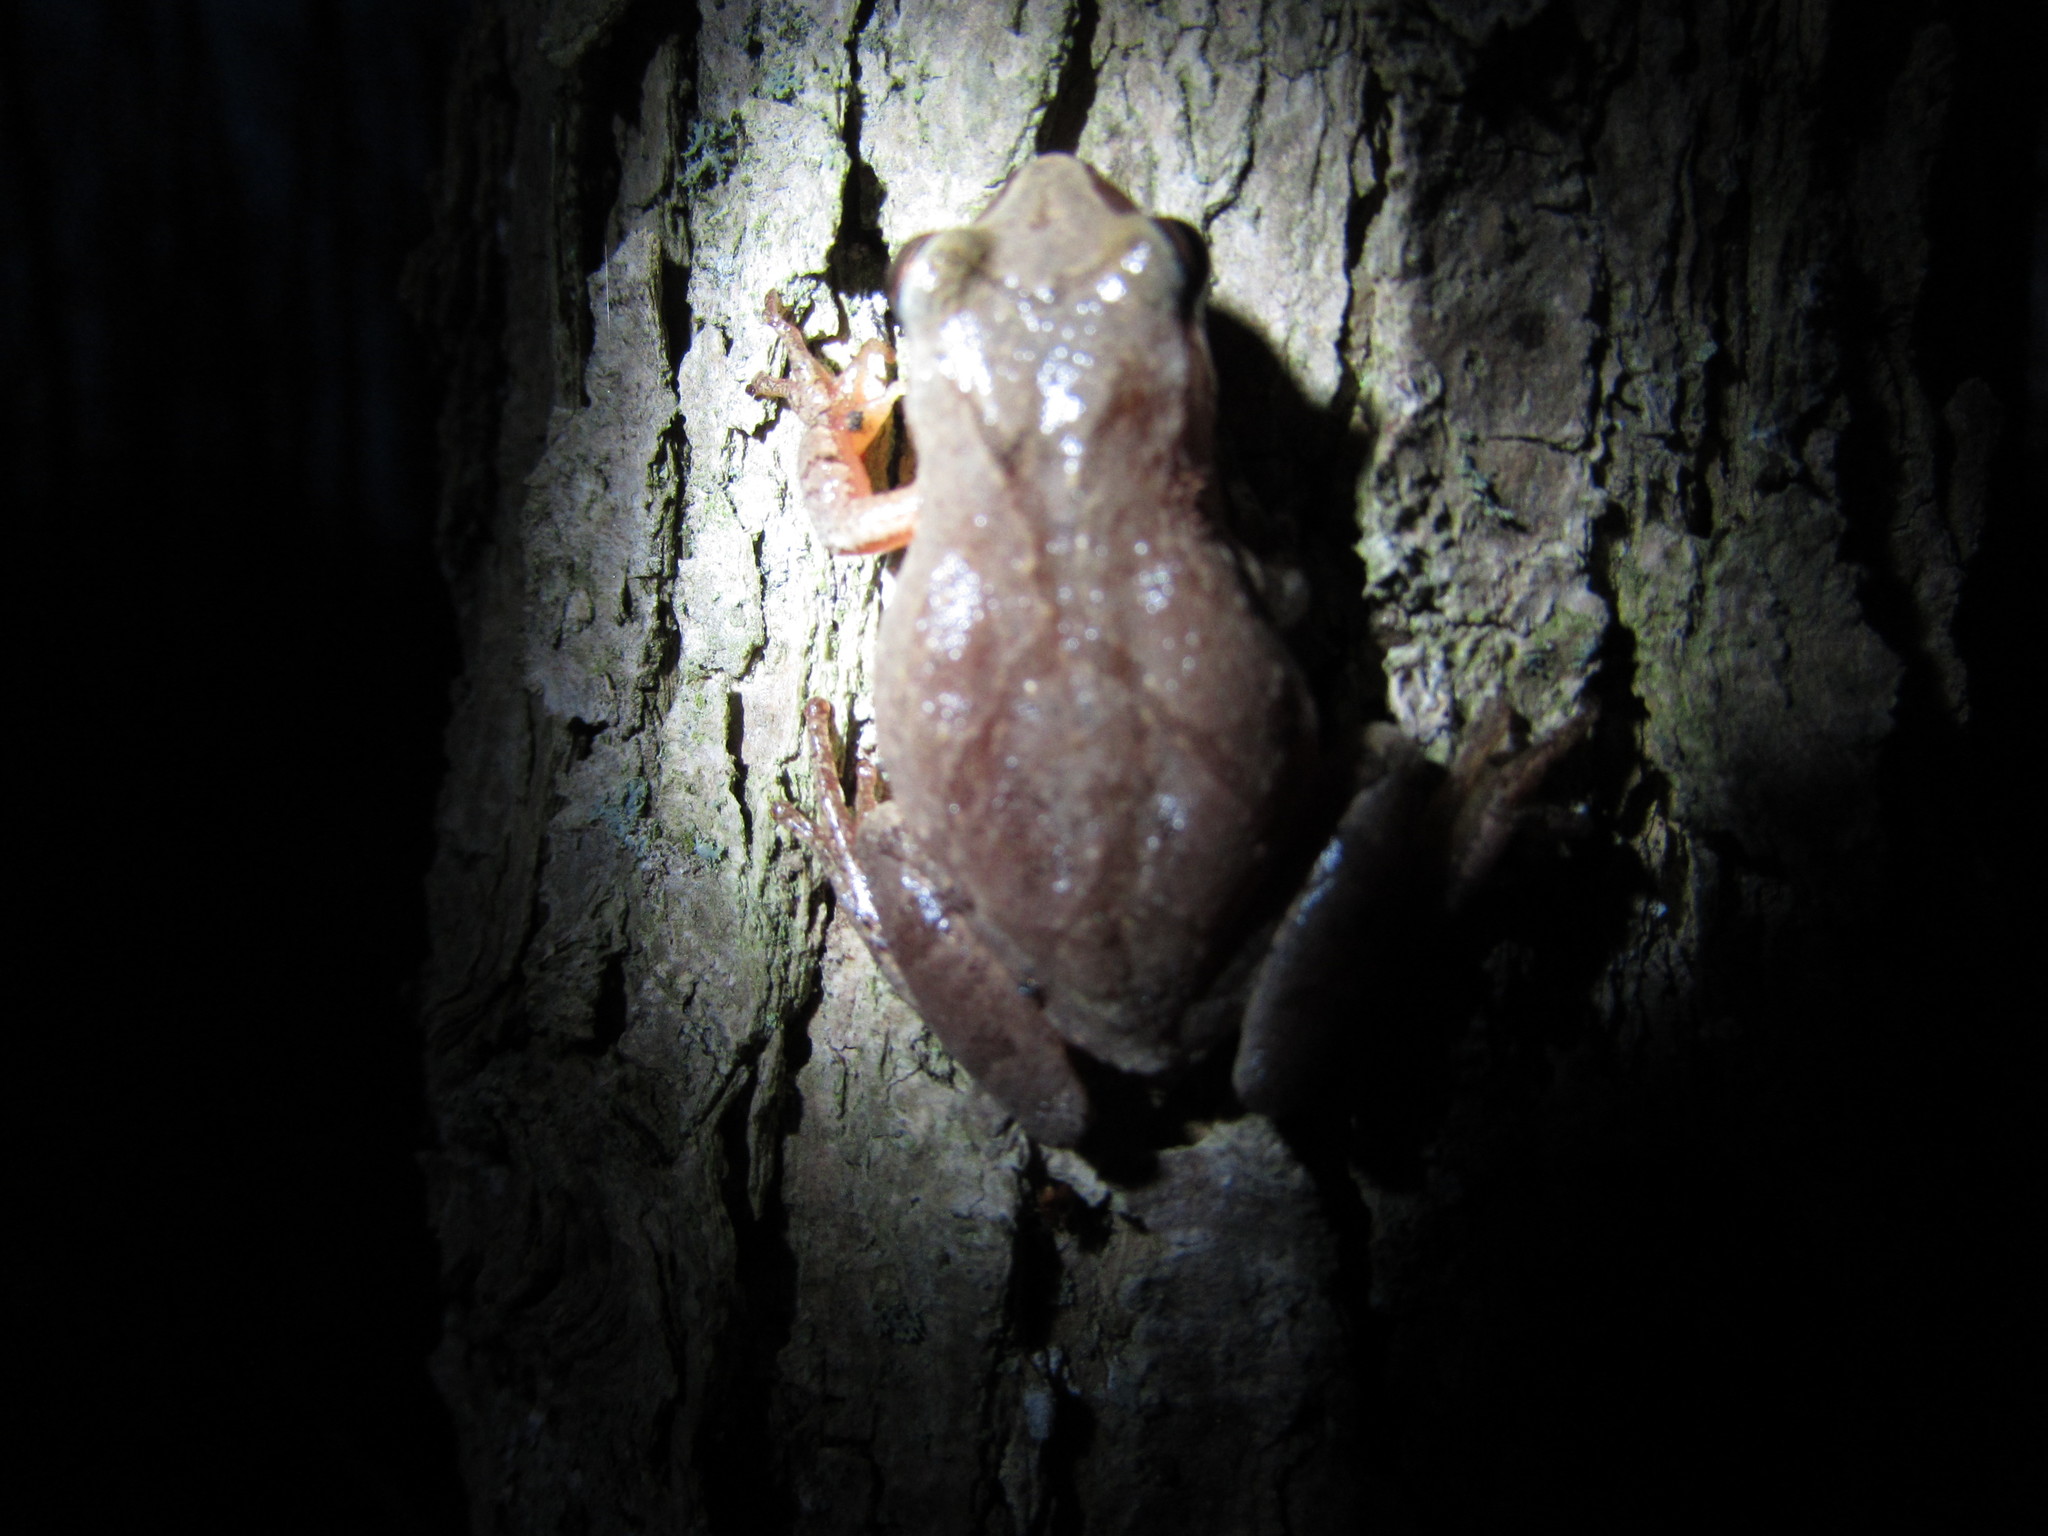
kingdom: Animalia
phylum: Chordata
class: Amphibia
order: Anura
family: Hylidae
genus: Pseudacris
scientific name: Pseudacris crucifer
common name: Spring peeper
